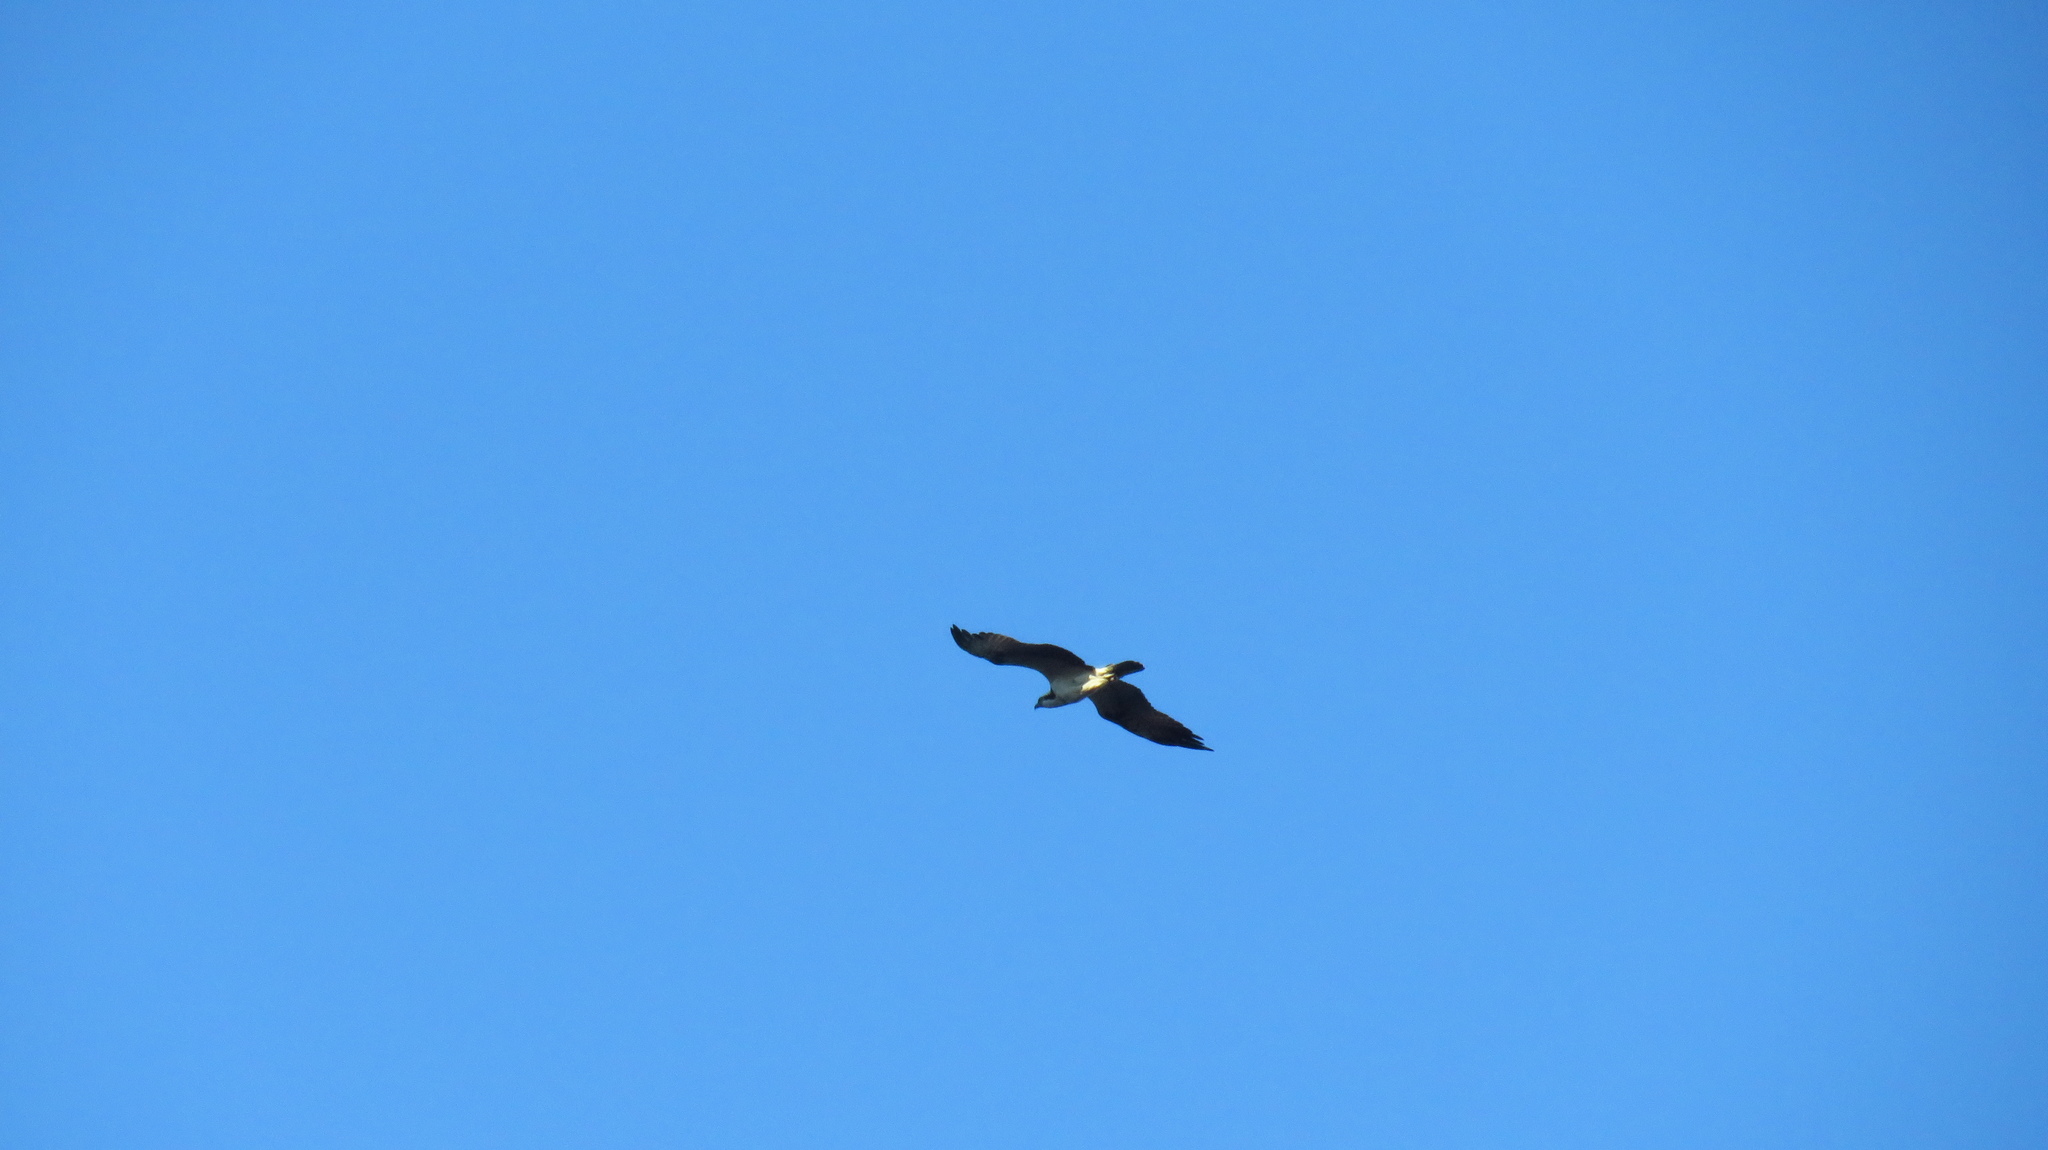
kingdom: Animalia
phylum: Chordata
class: Aves
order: Accipitriformes
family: Pandionidae
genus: Pandion
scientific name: Pandion haliaetus
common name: Osprey
